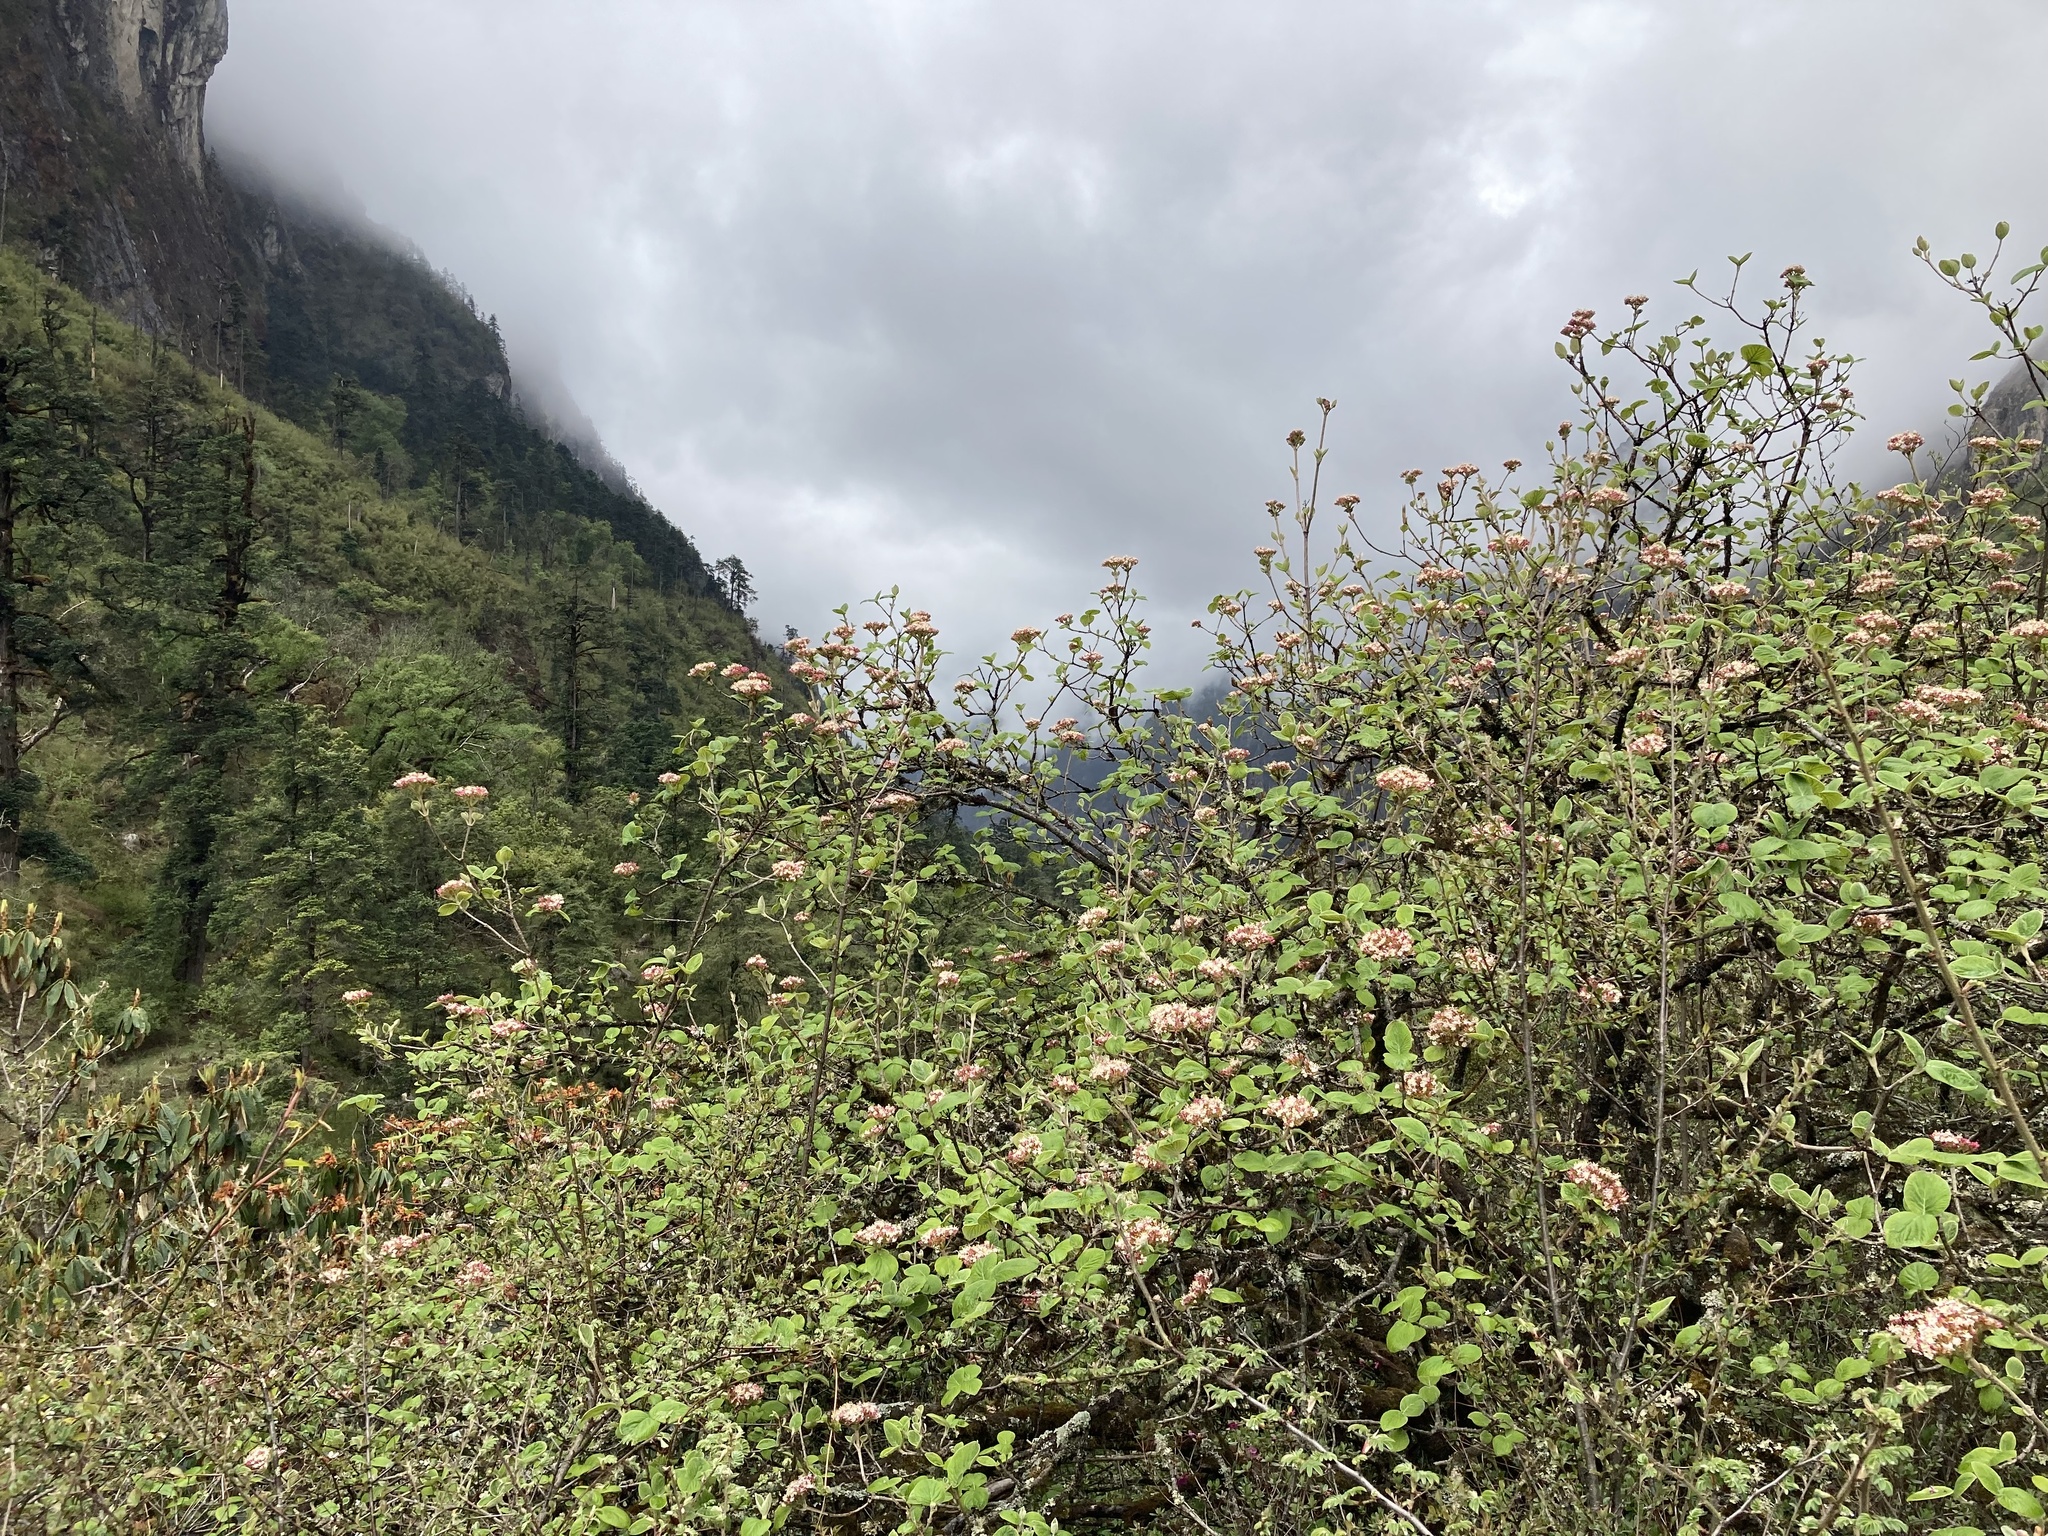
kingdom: Plantae
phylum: Tracheophyta
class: Magnoliopsida
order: Dipsacales
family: Viburnaceae
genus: Viburnum
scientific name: Viburnum cotinifolium
